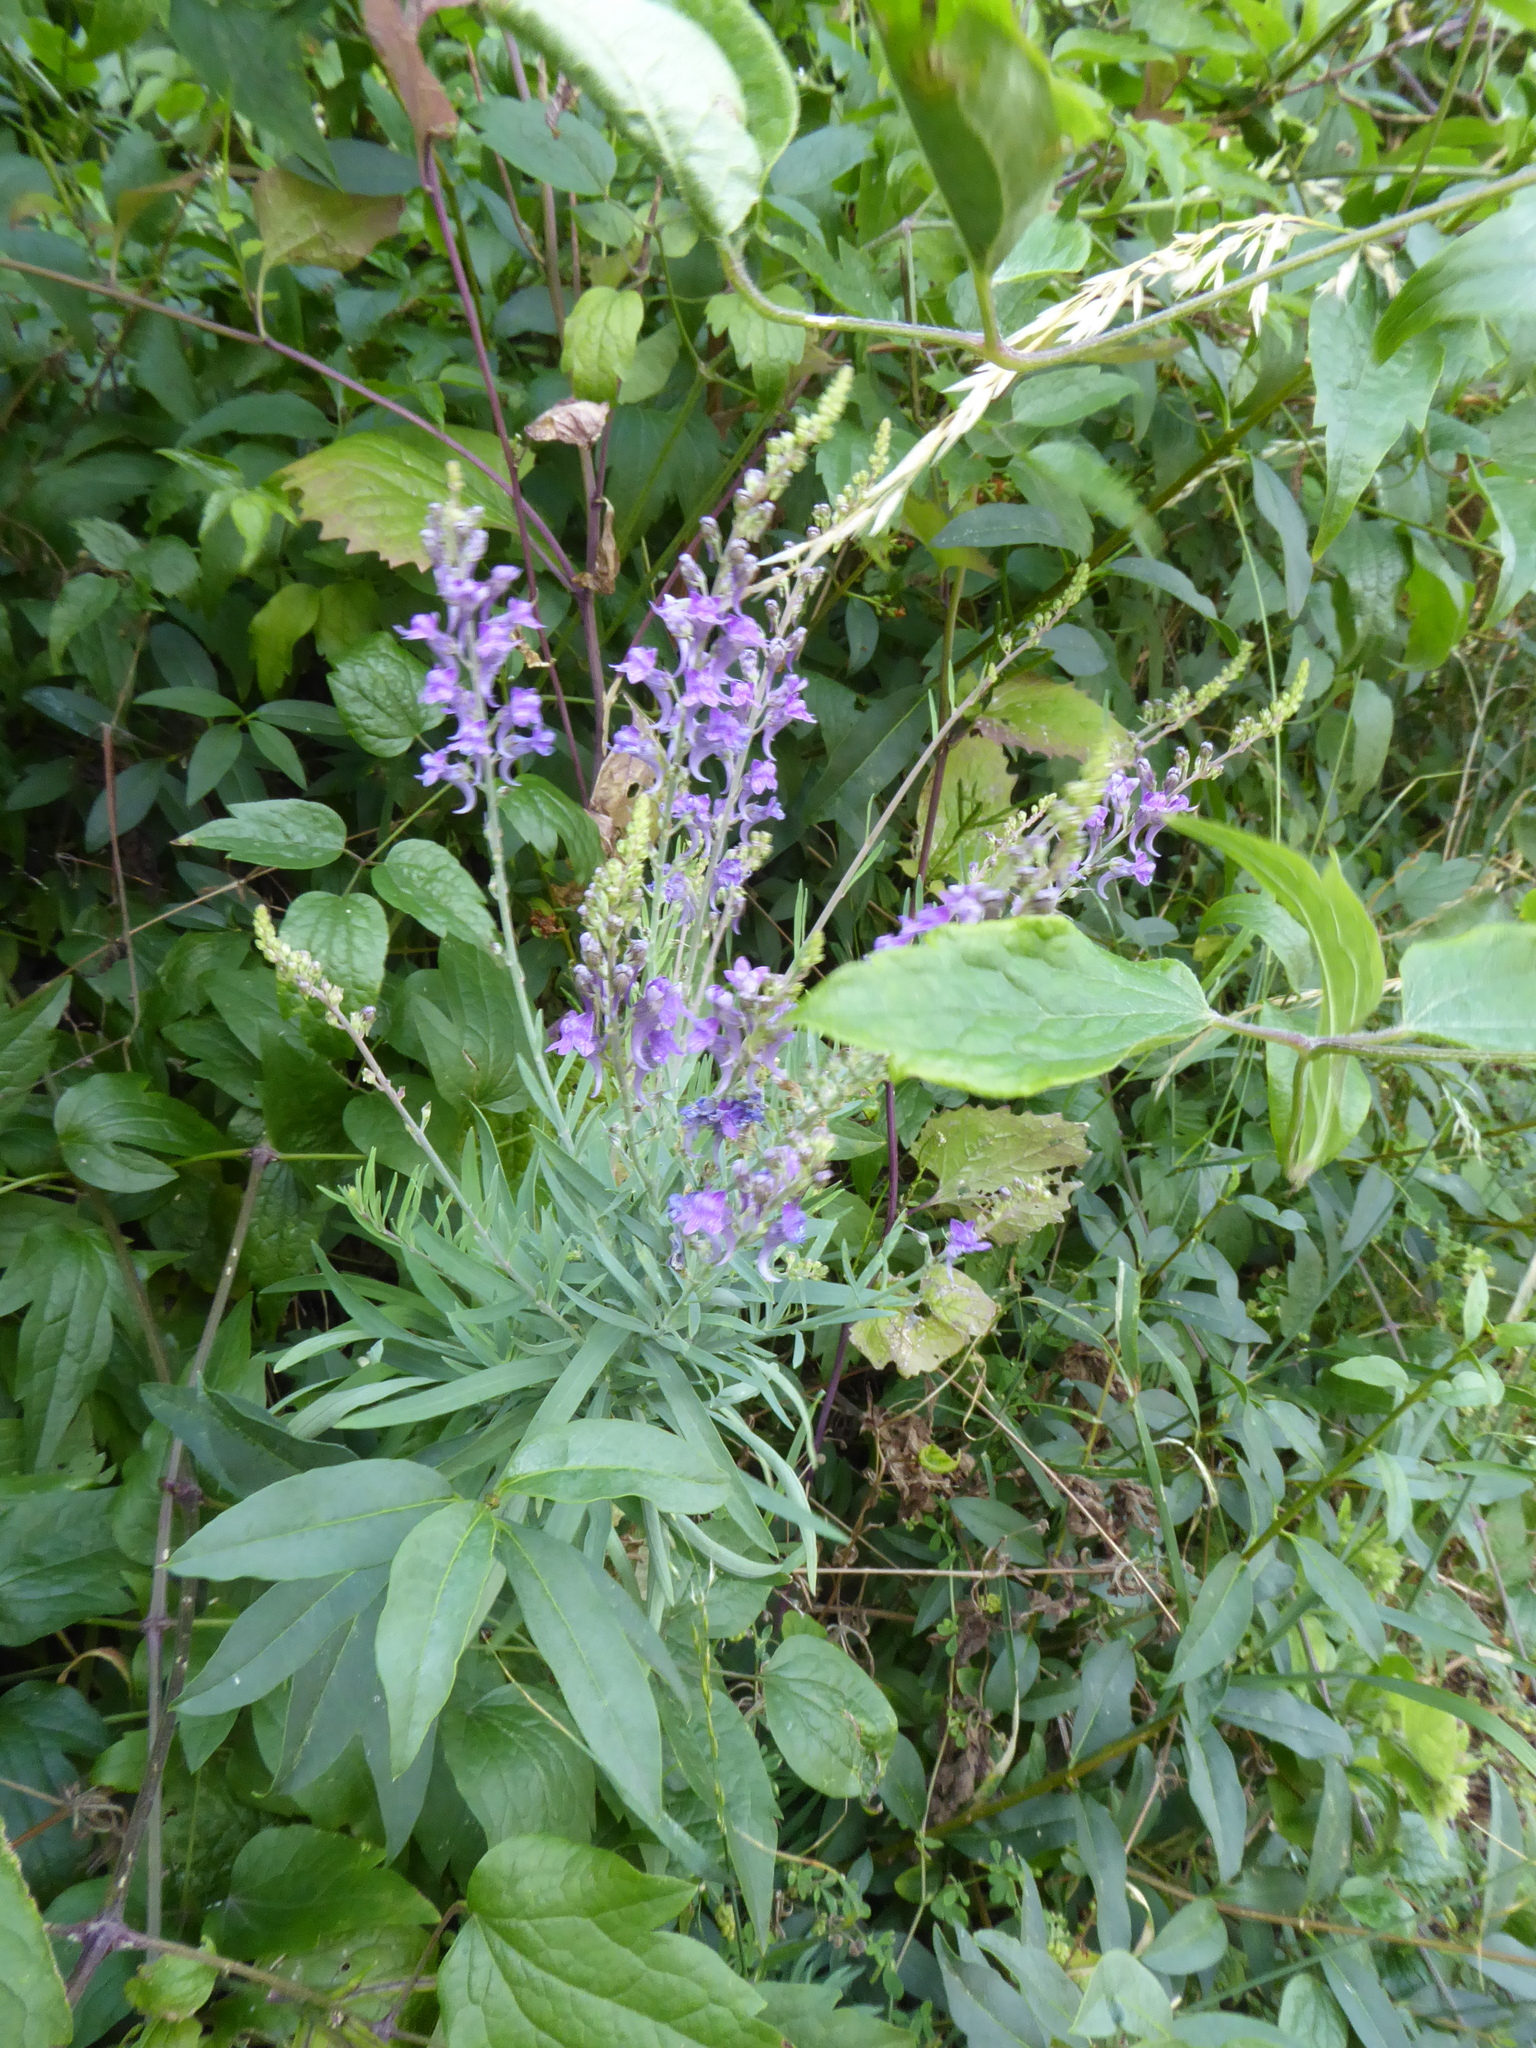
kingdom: Plantae
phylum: Tracheophyta
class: Magnoliopsida
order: Lamiales
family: Plantaginaceae
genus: Linaria
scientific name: Linaria purpurea
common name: Purple toadflax
